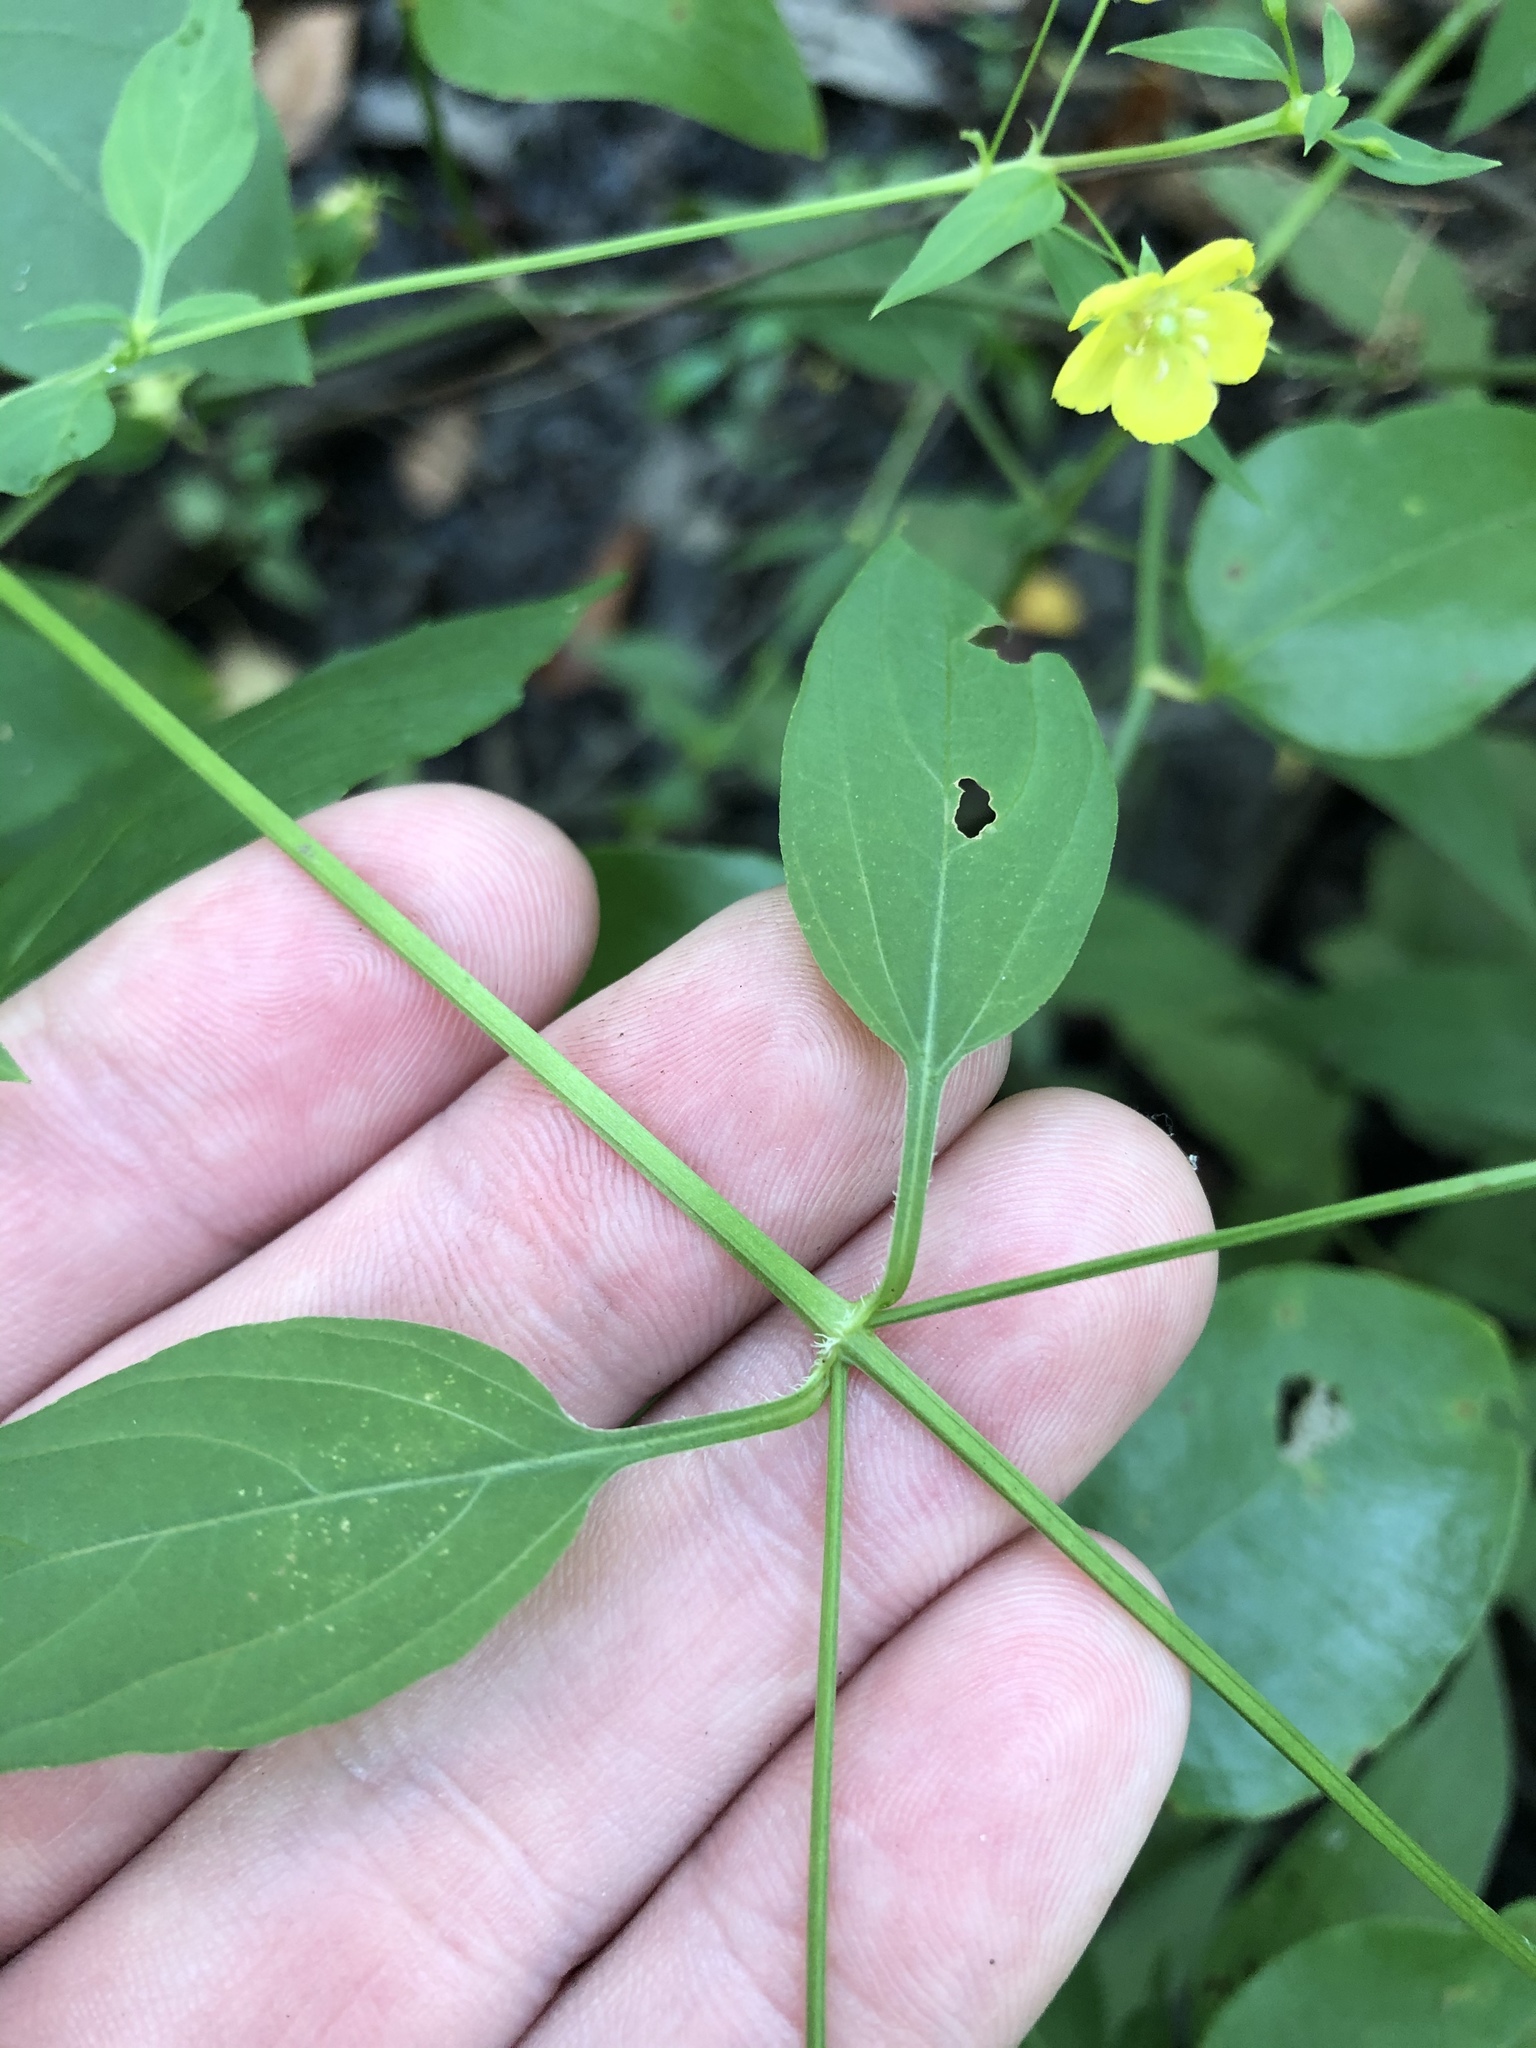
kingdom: Plantae
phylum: Tracheophyta
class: Magnoliopsida
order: Ericales
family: Primulaceae
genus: Lysimachia
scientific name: Lysimachia ciliata
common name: Fringed loosestrife
